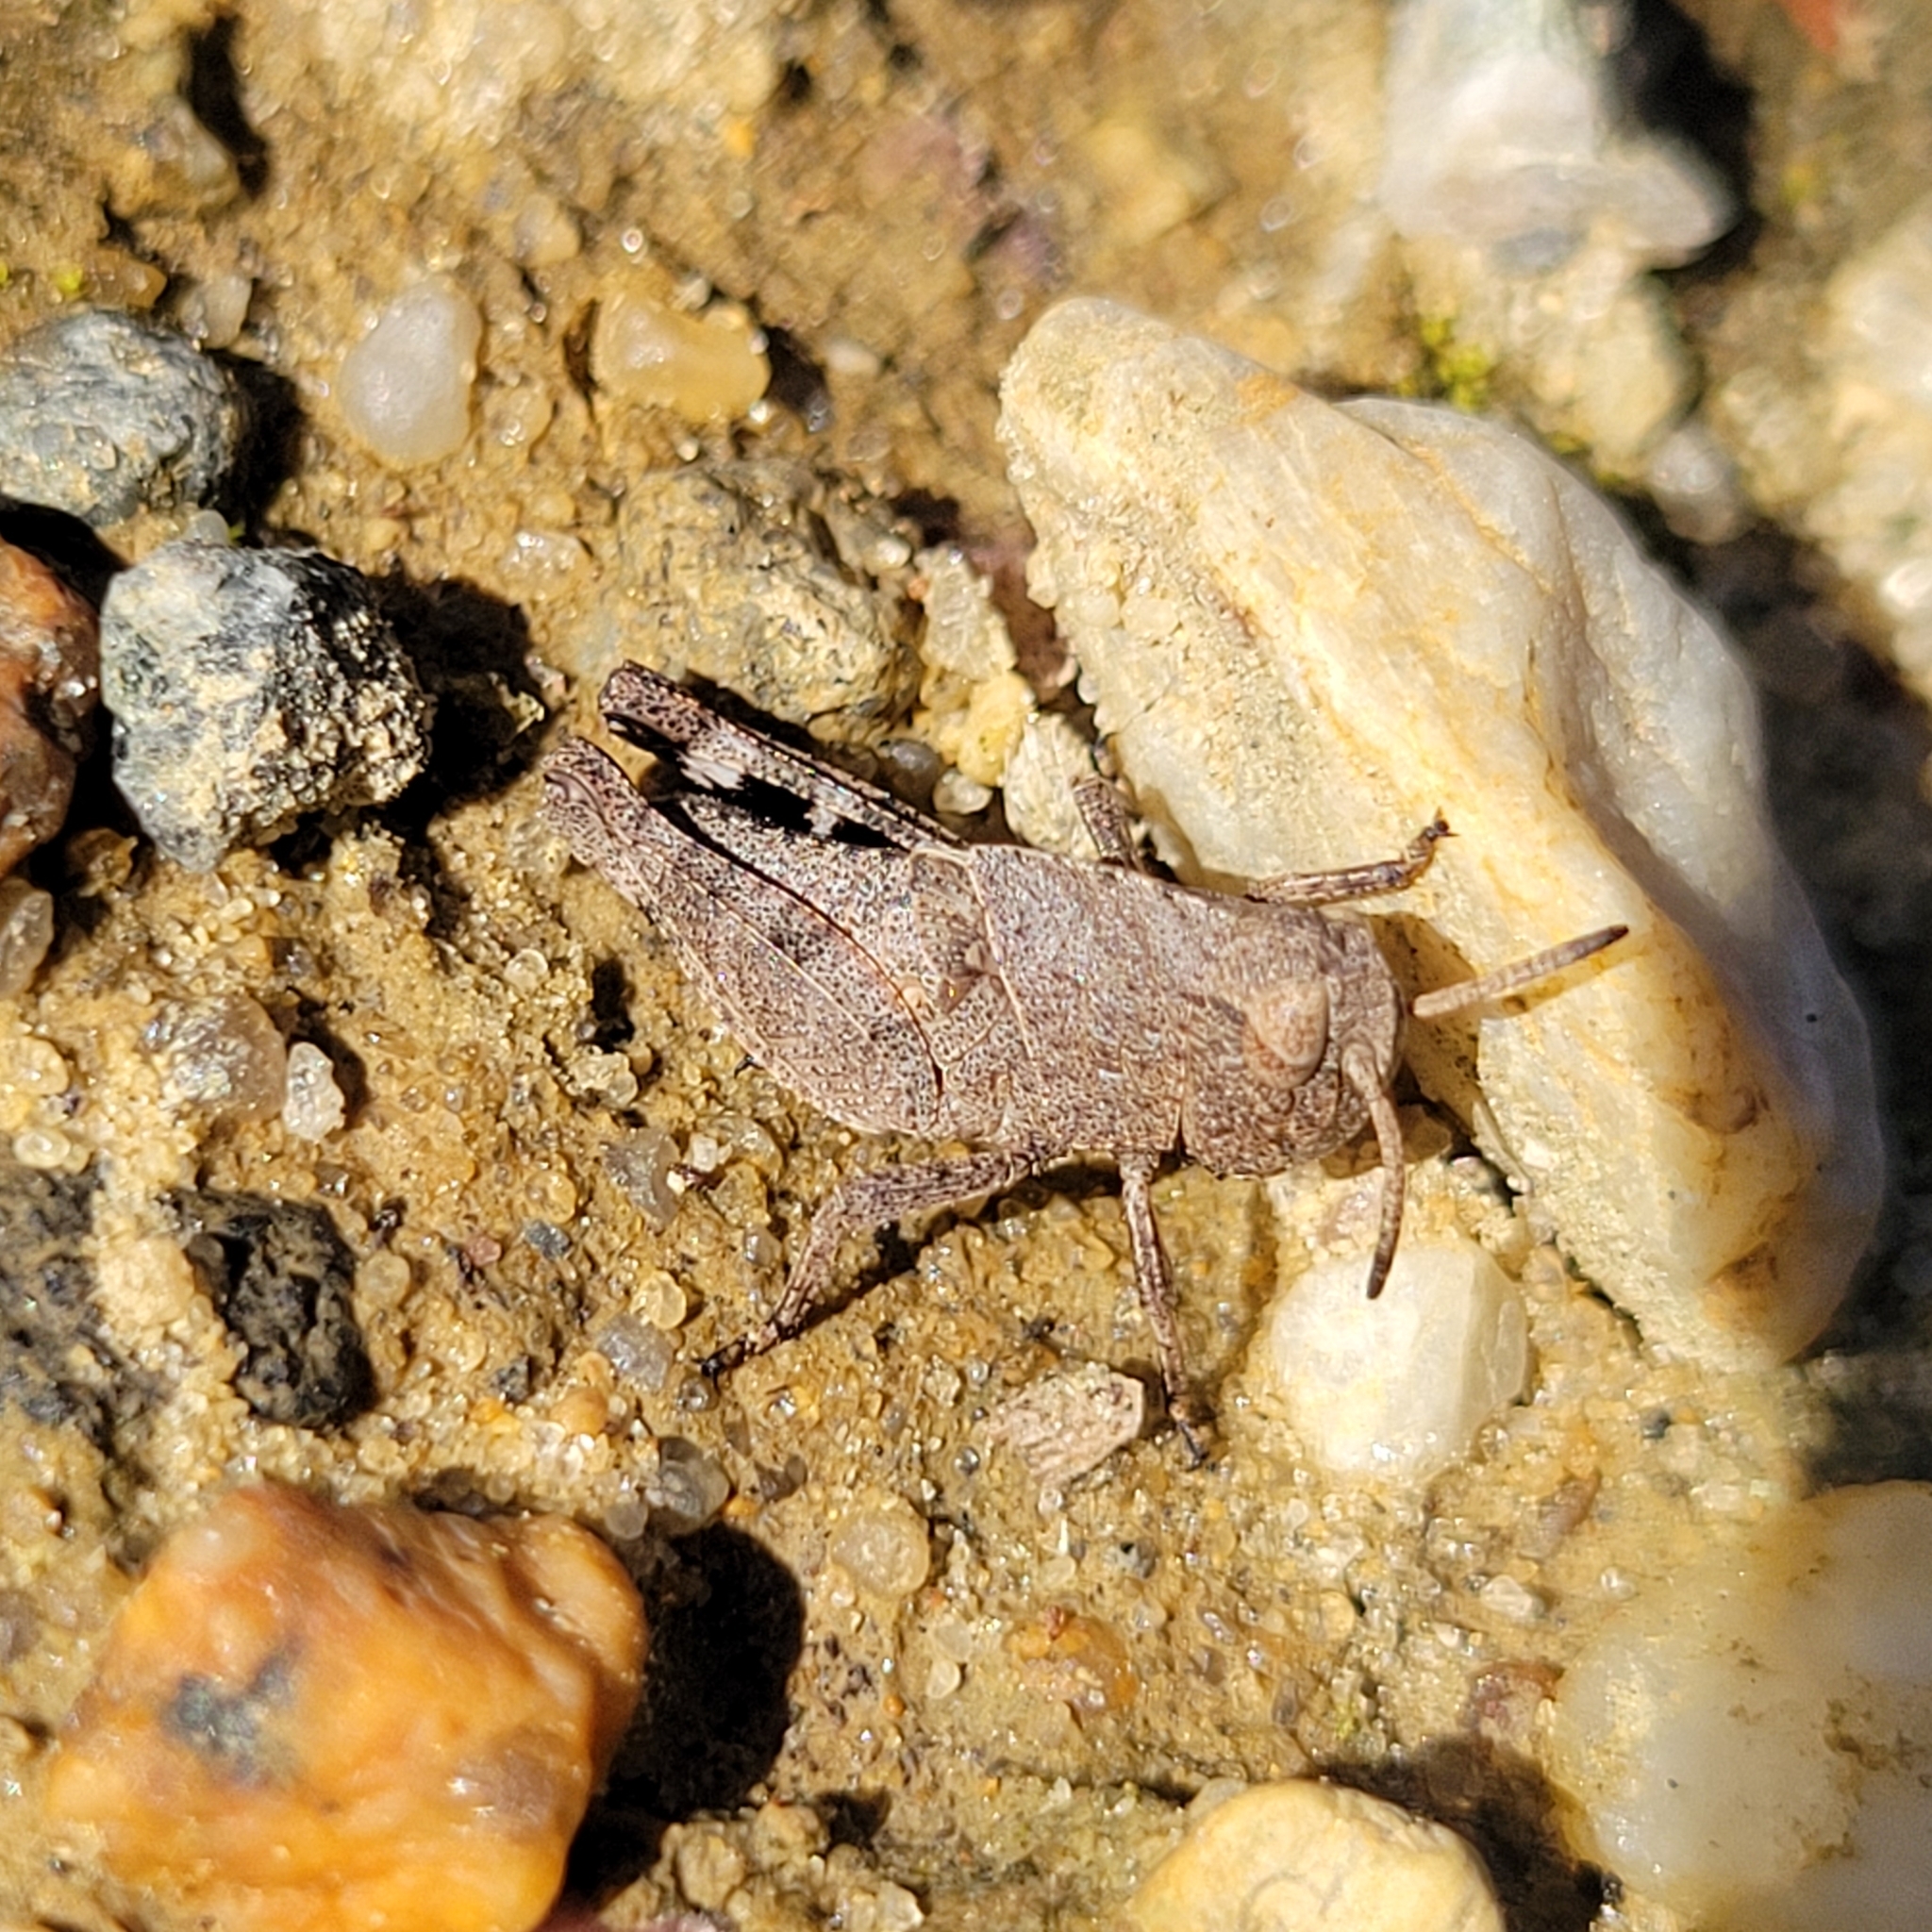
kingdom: Animalia
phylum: Arthropoda
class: Insecta
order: Orthoptera
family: Acrididae
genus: Arphia
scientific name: Arphia sulphurea
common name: Spring yellow-winged locust
